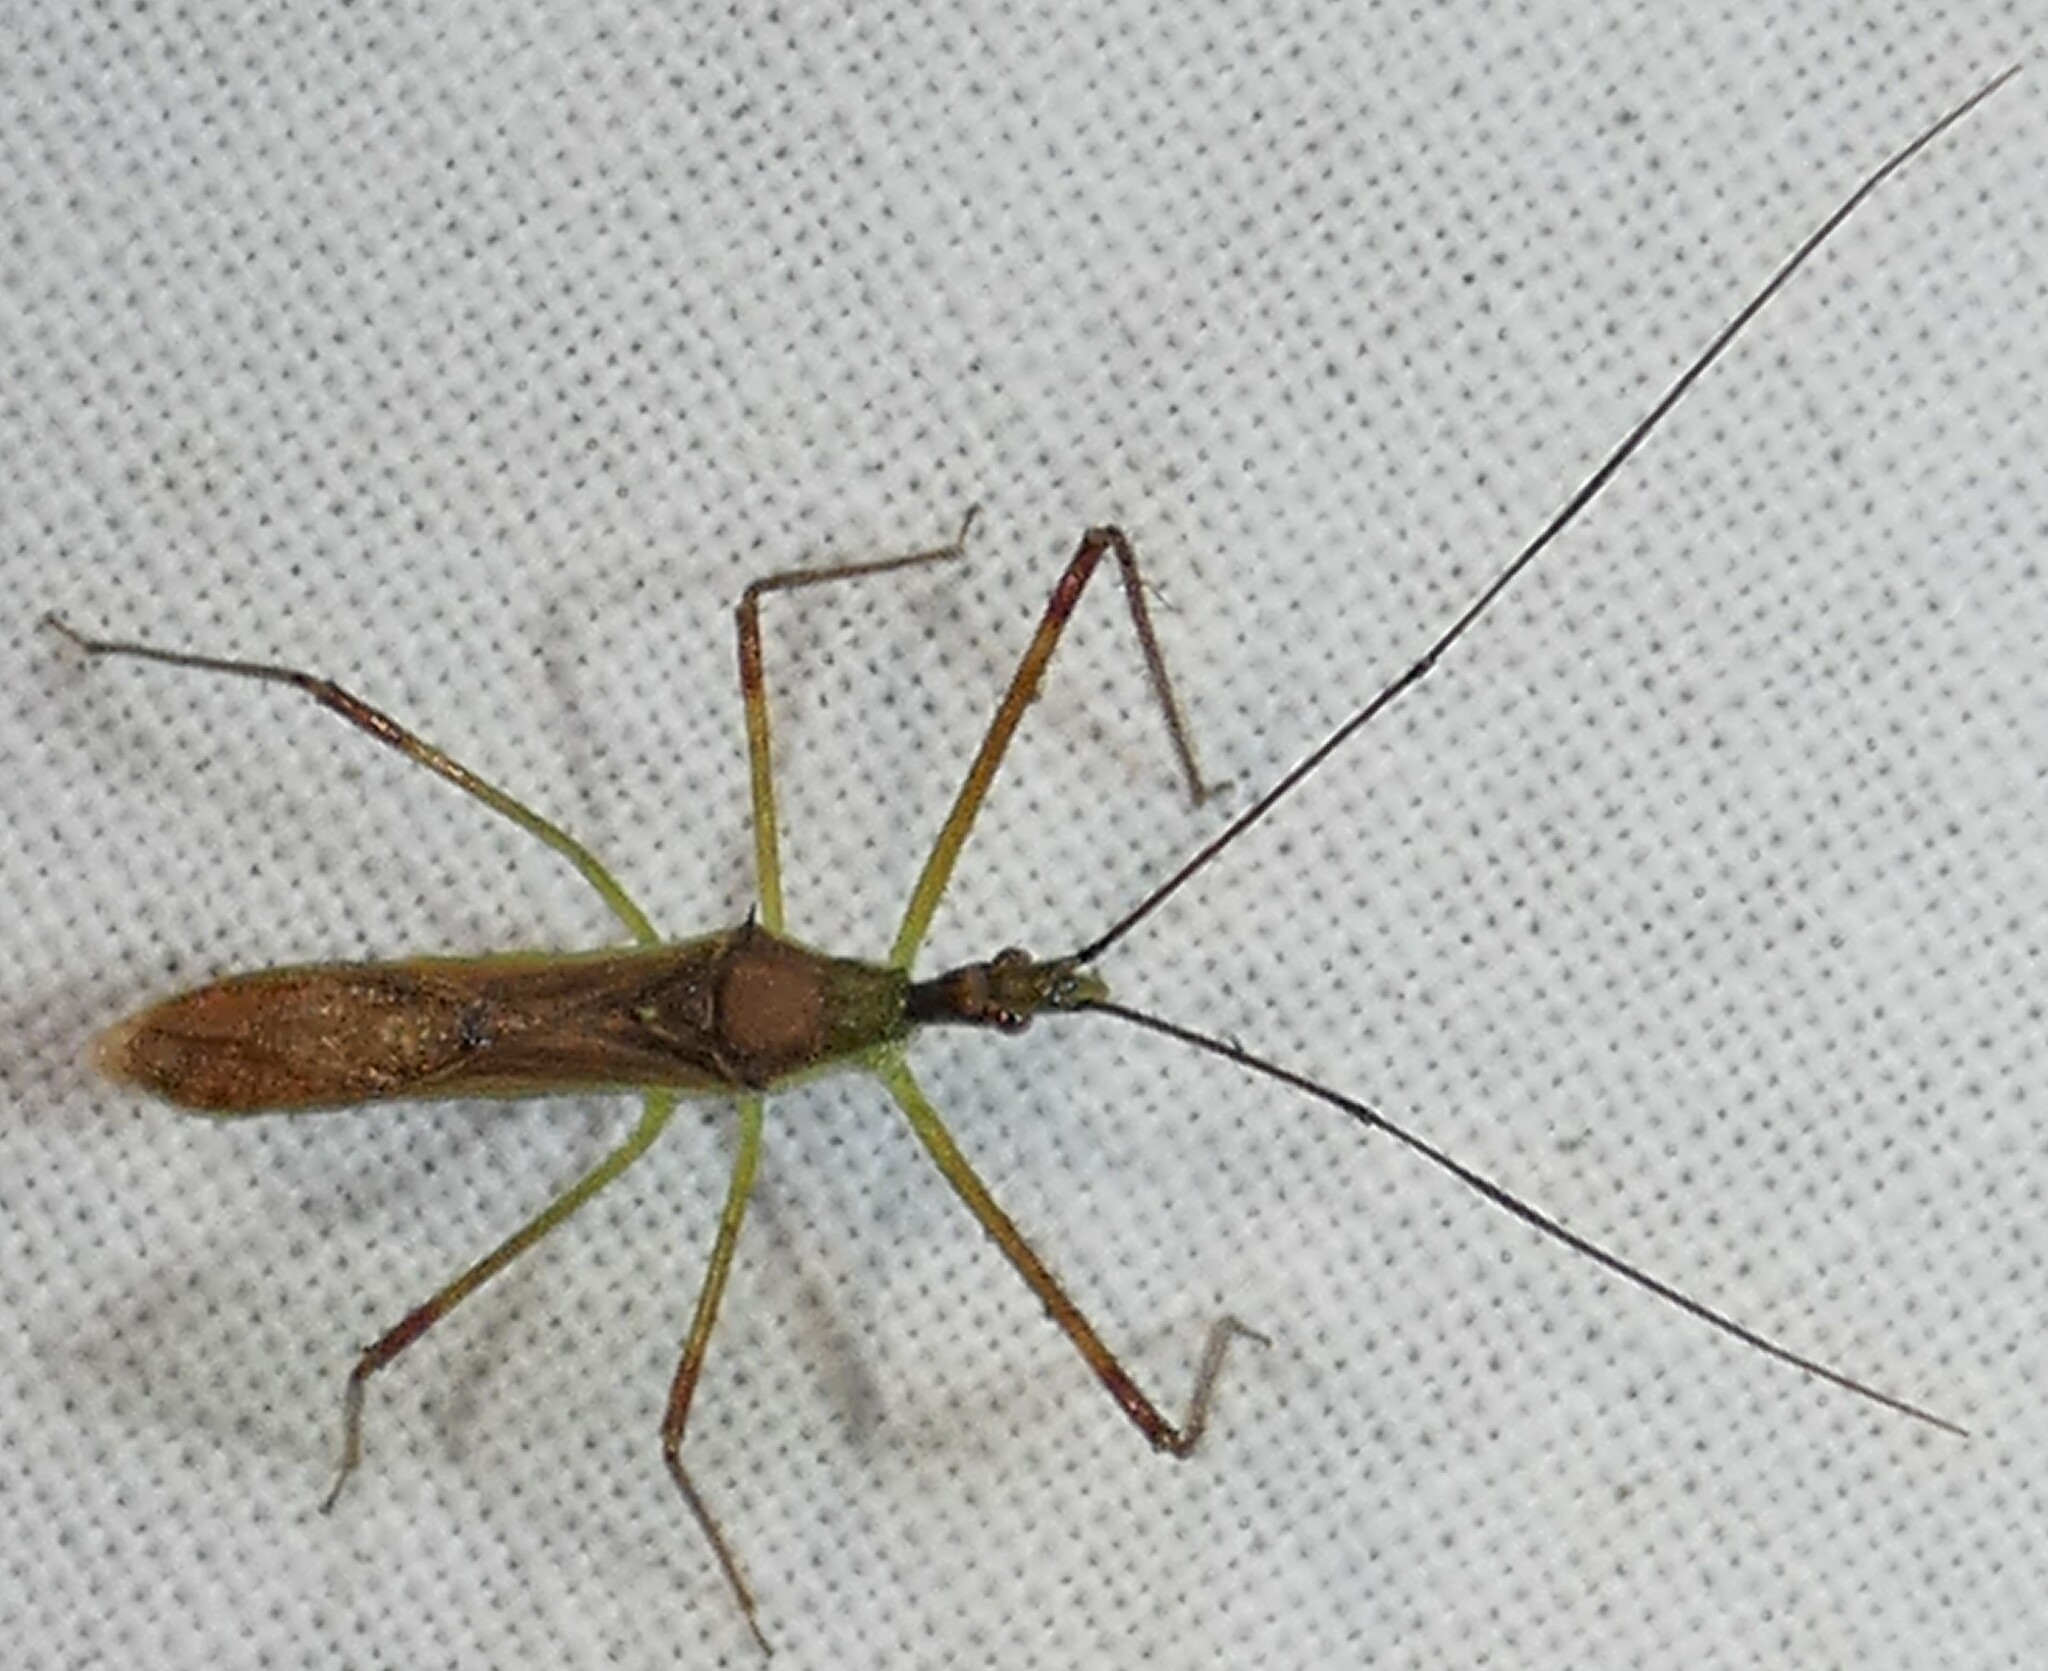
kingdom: Animalia
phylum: Arthropoda
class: Insecta
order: Hemiptera
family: Reduviidae
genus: Zelus
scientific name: Zelus luridus
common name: Pale green assassin bug
